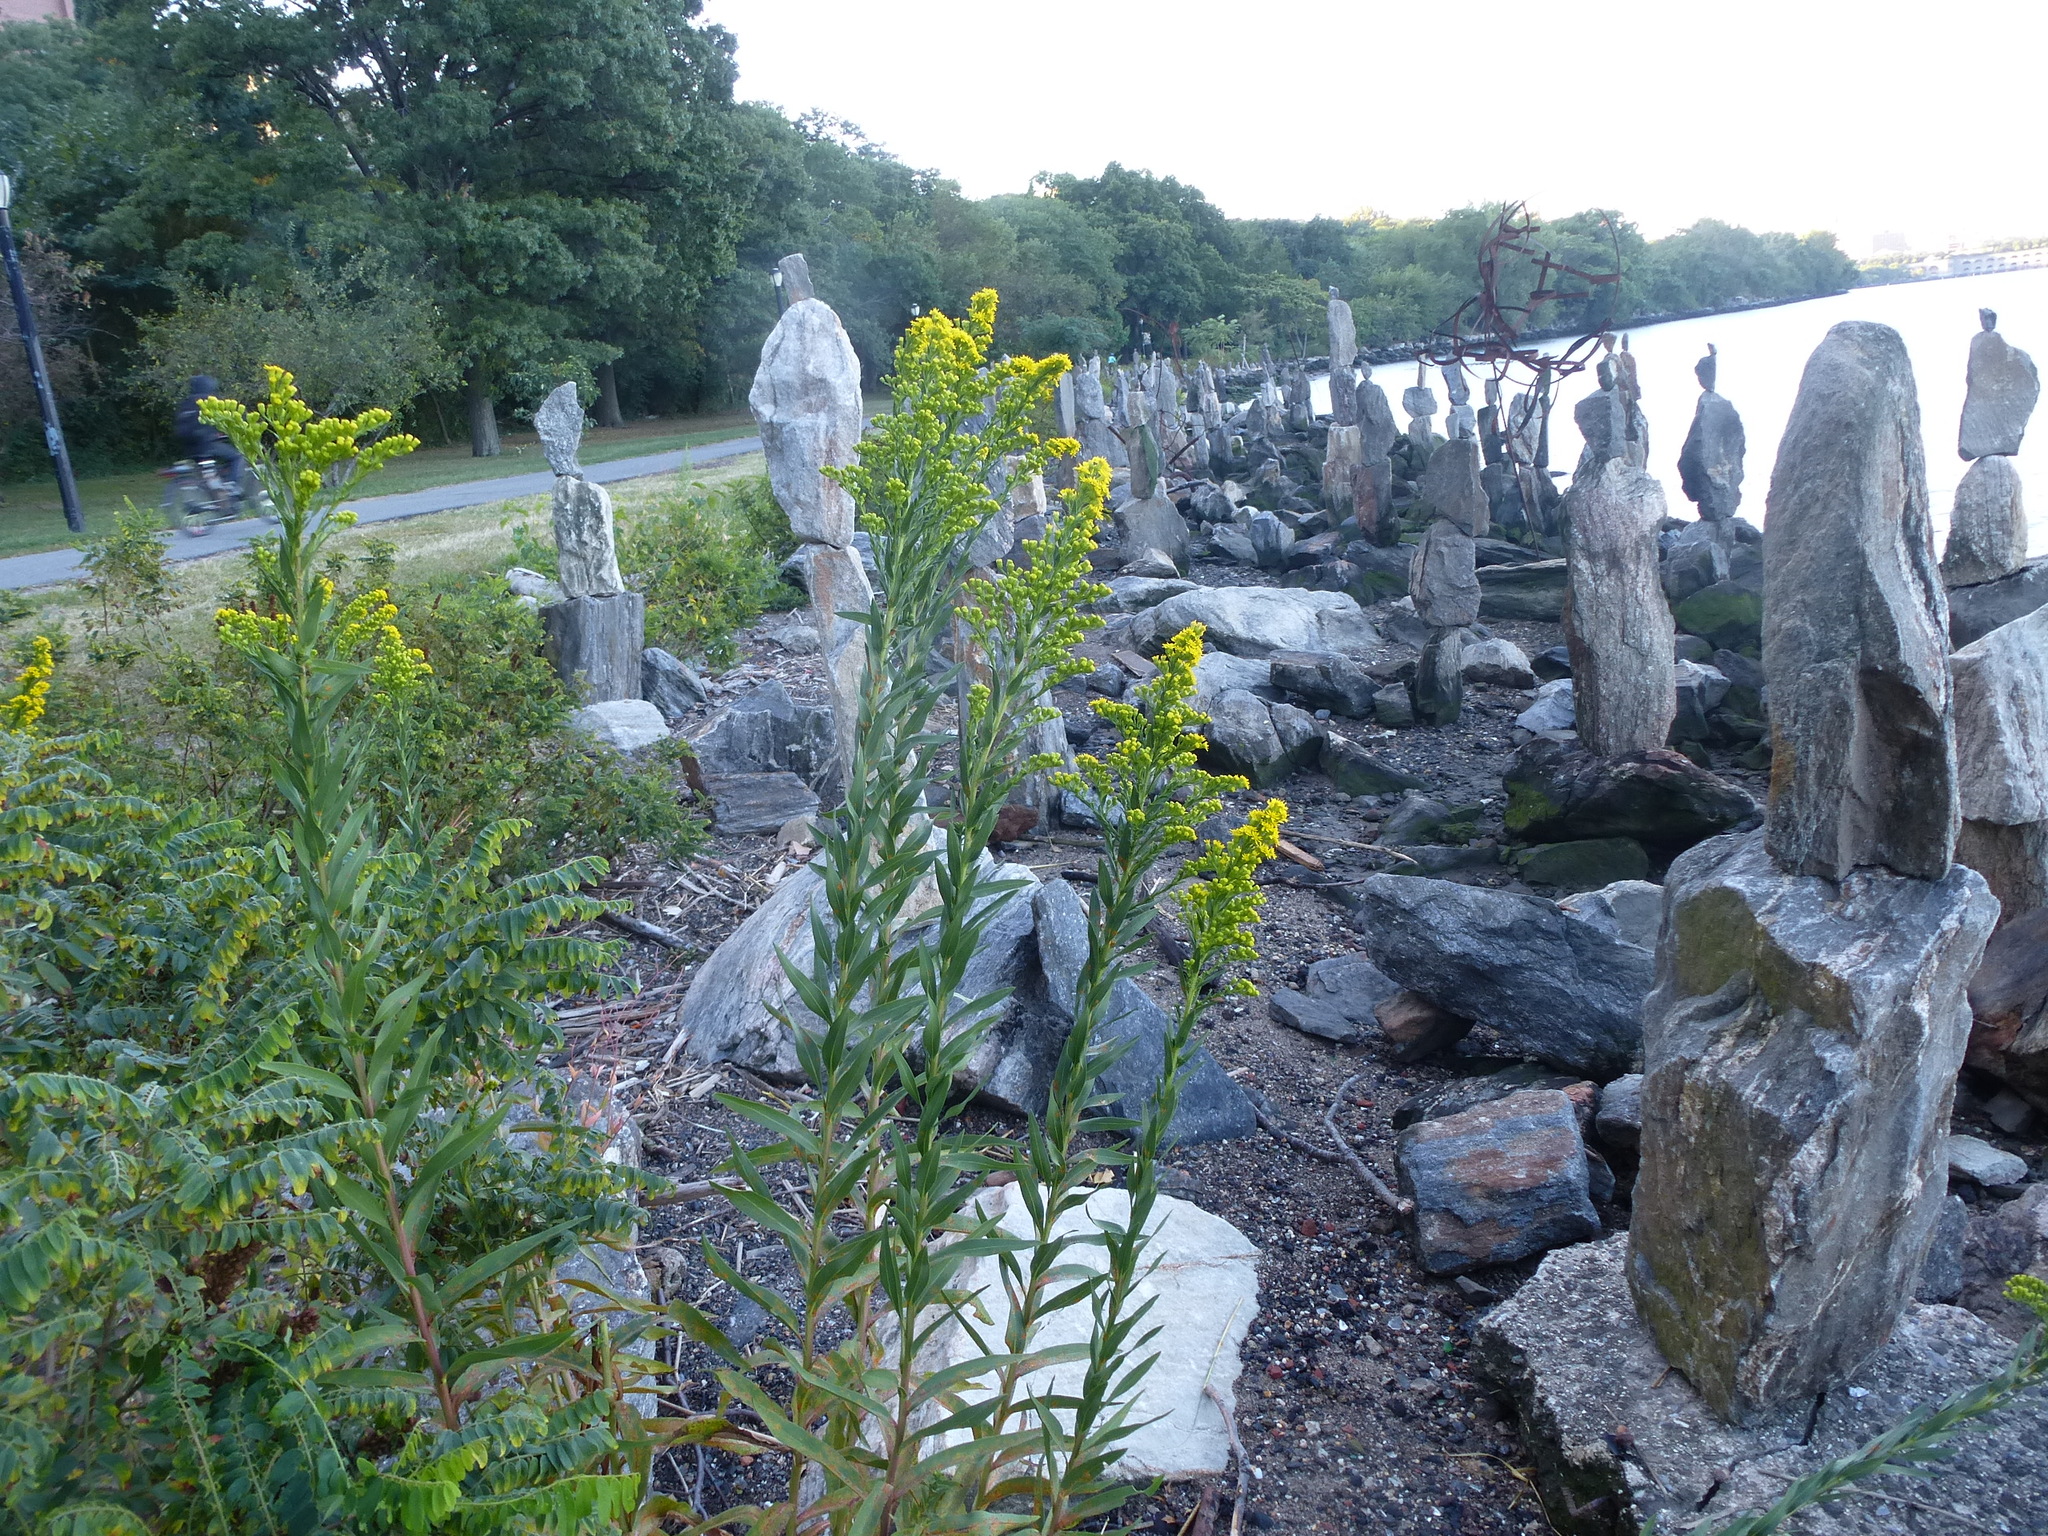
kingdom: Plantae
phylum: Tracheophyta
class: Magnoliopsida
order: Asterales
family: Asteraceae
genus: Solidago
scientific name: Solidago sempervirens
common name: Salt-marsh goldenrod
